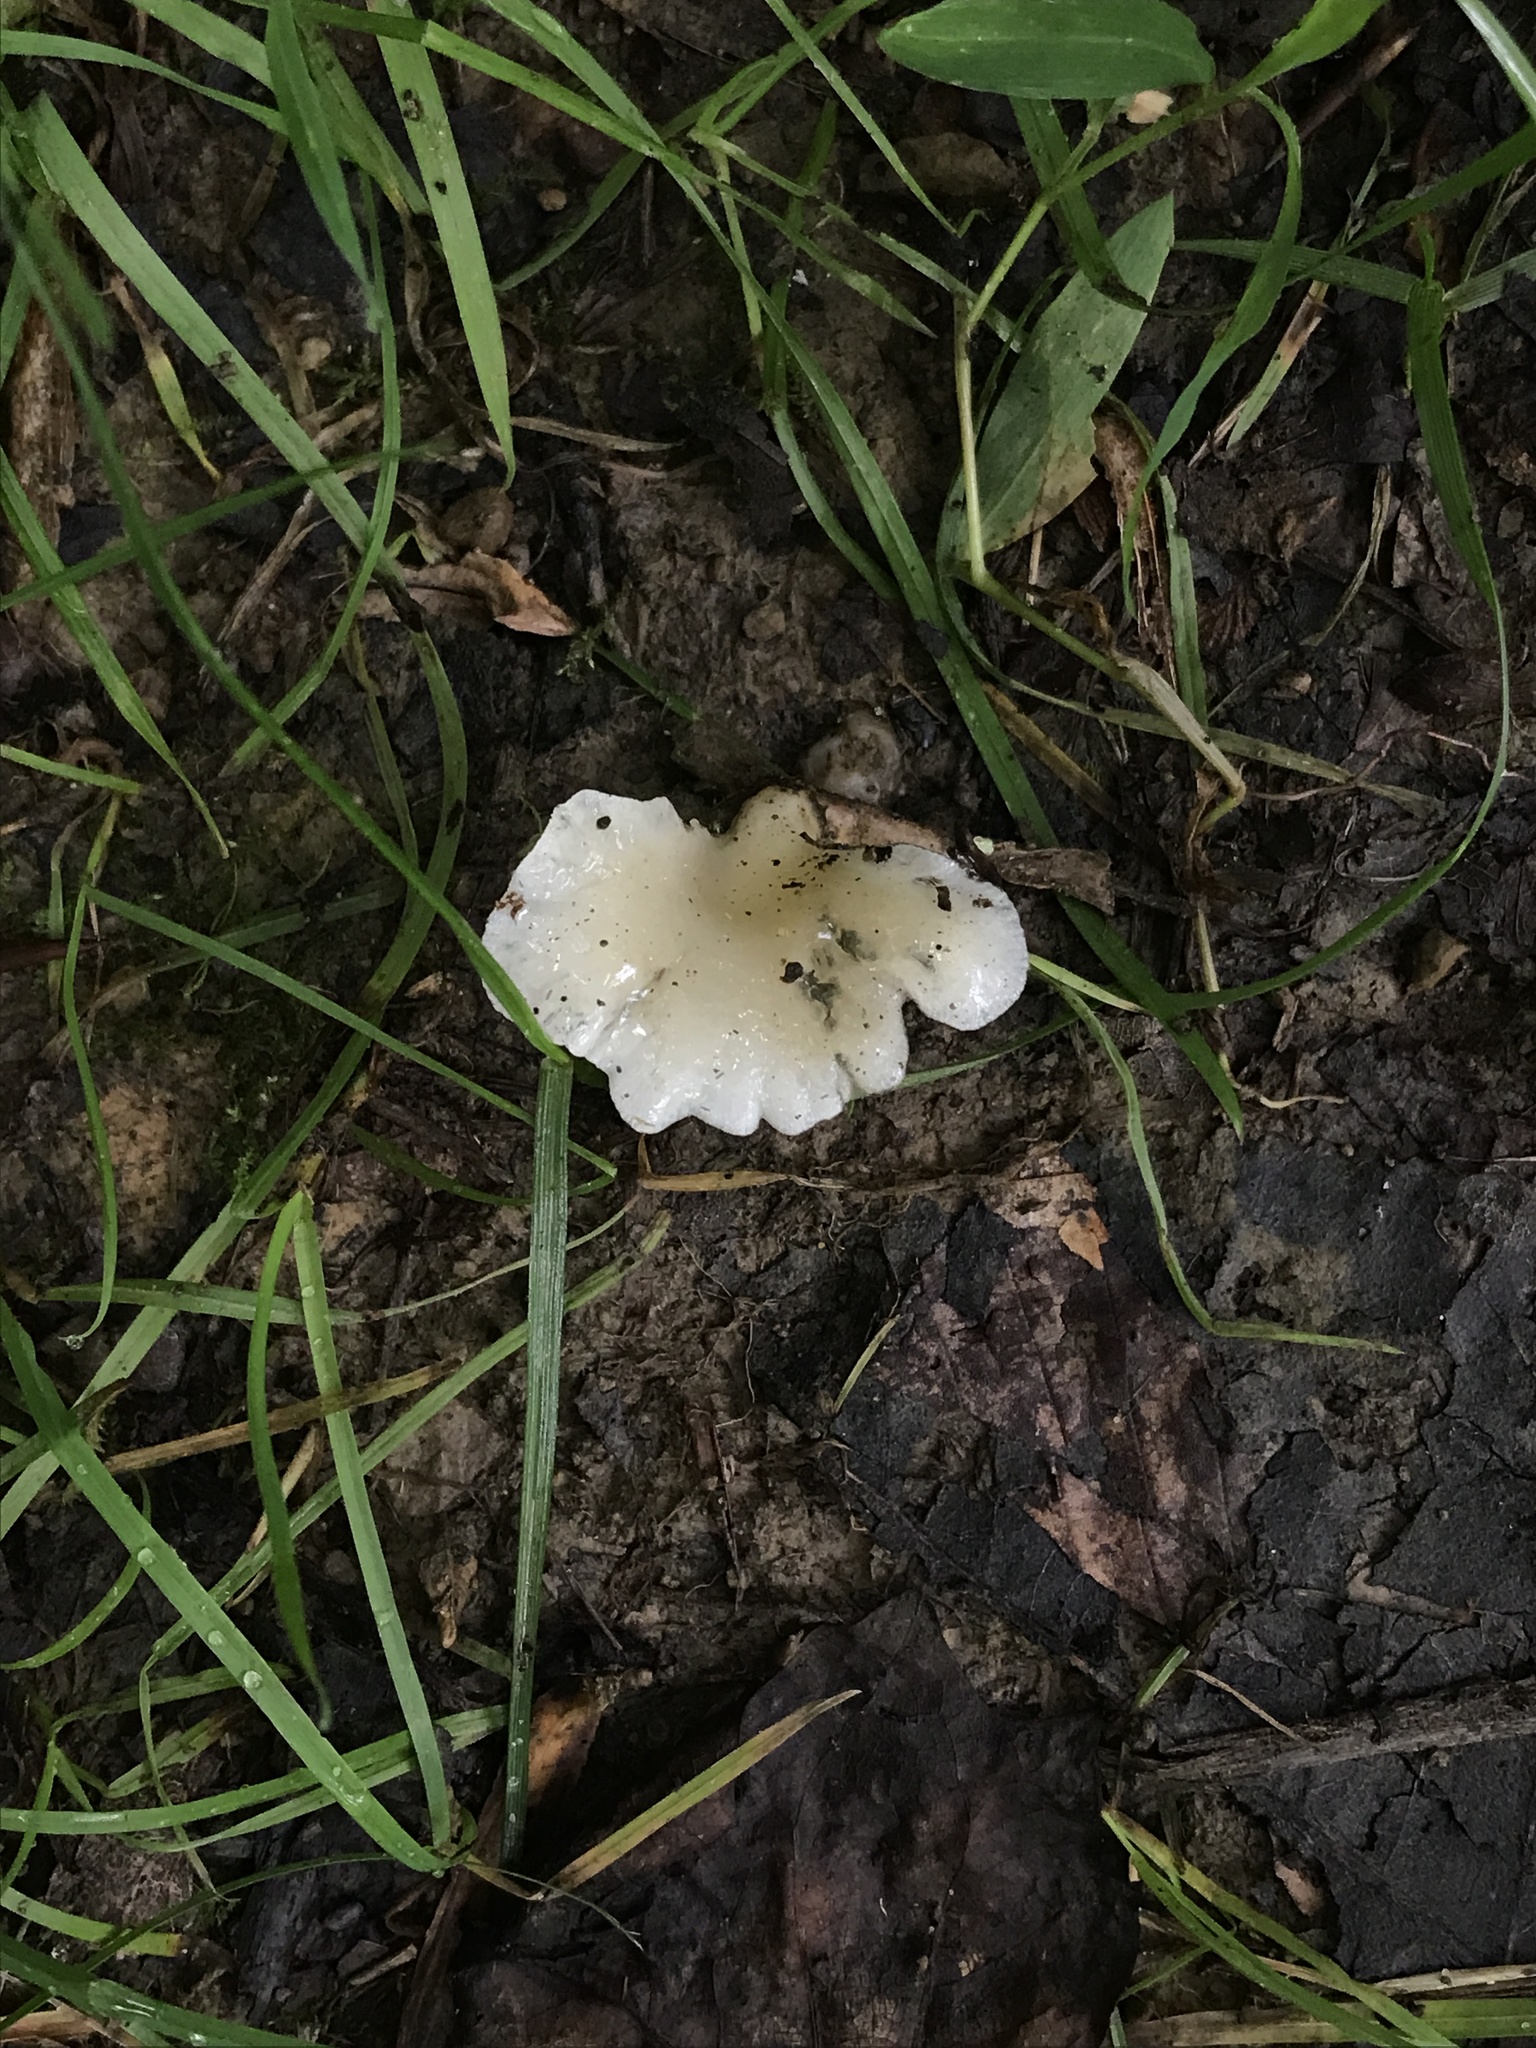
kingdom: Fungi
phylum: Basidiomycota
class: Agaricomycetes
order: Agaricales
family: Pleurotaceae
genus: Hohenbuehelia
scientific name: Hohenbuehelia petaloides
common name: Shoehorn oyster
